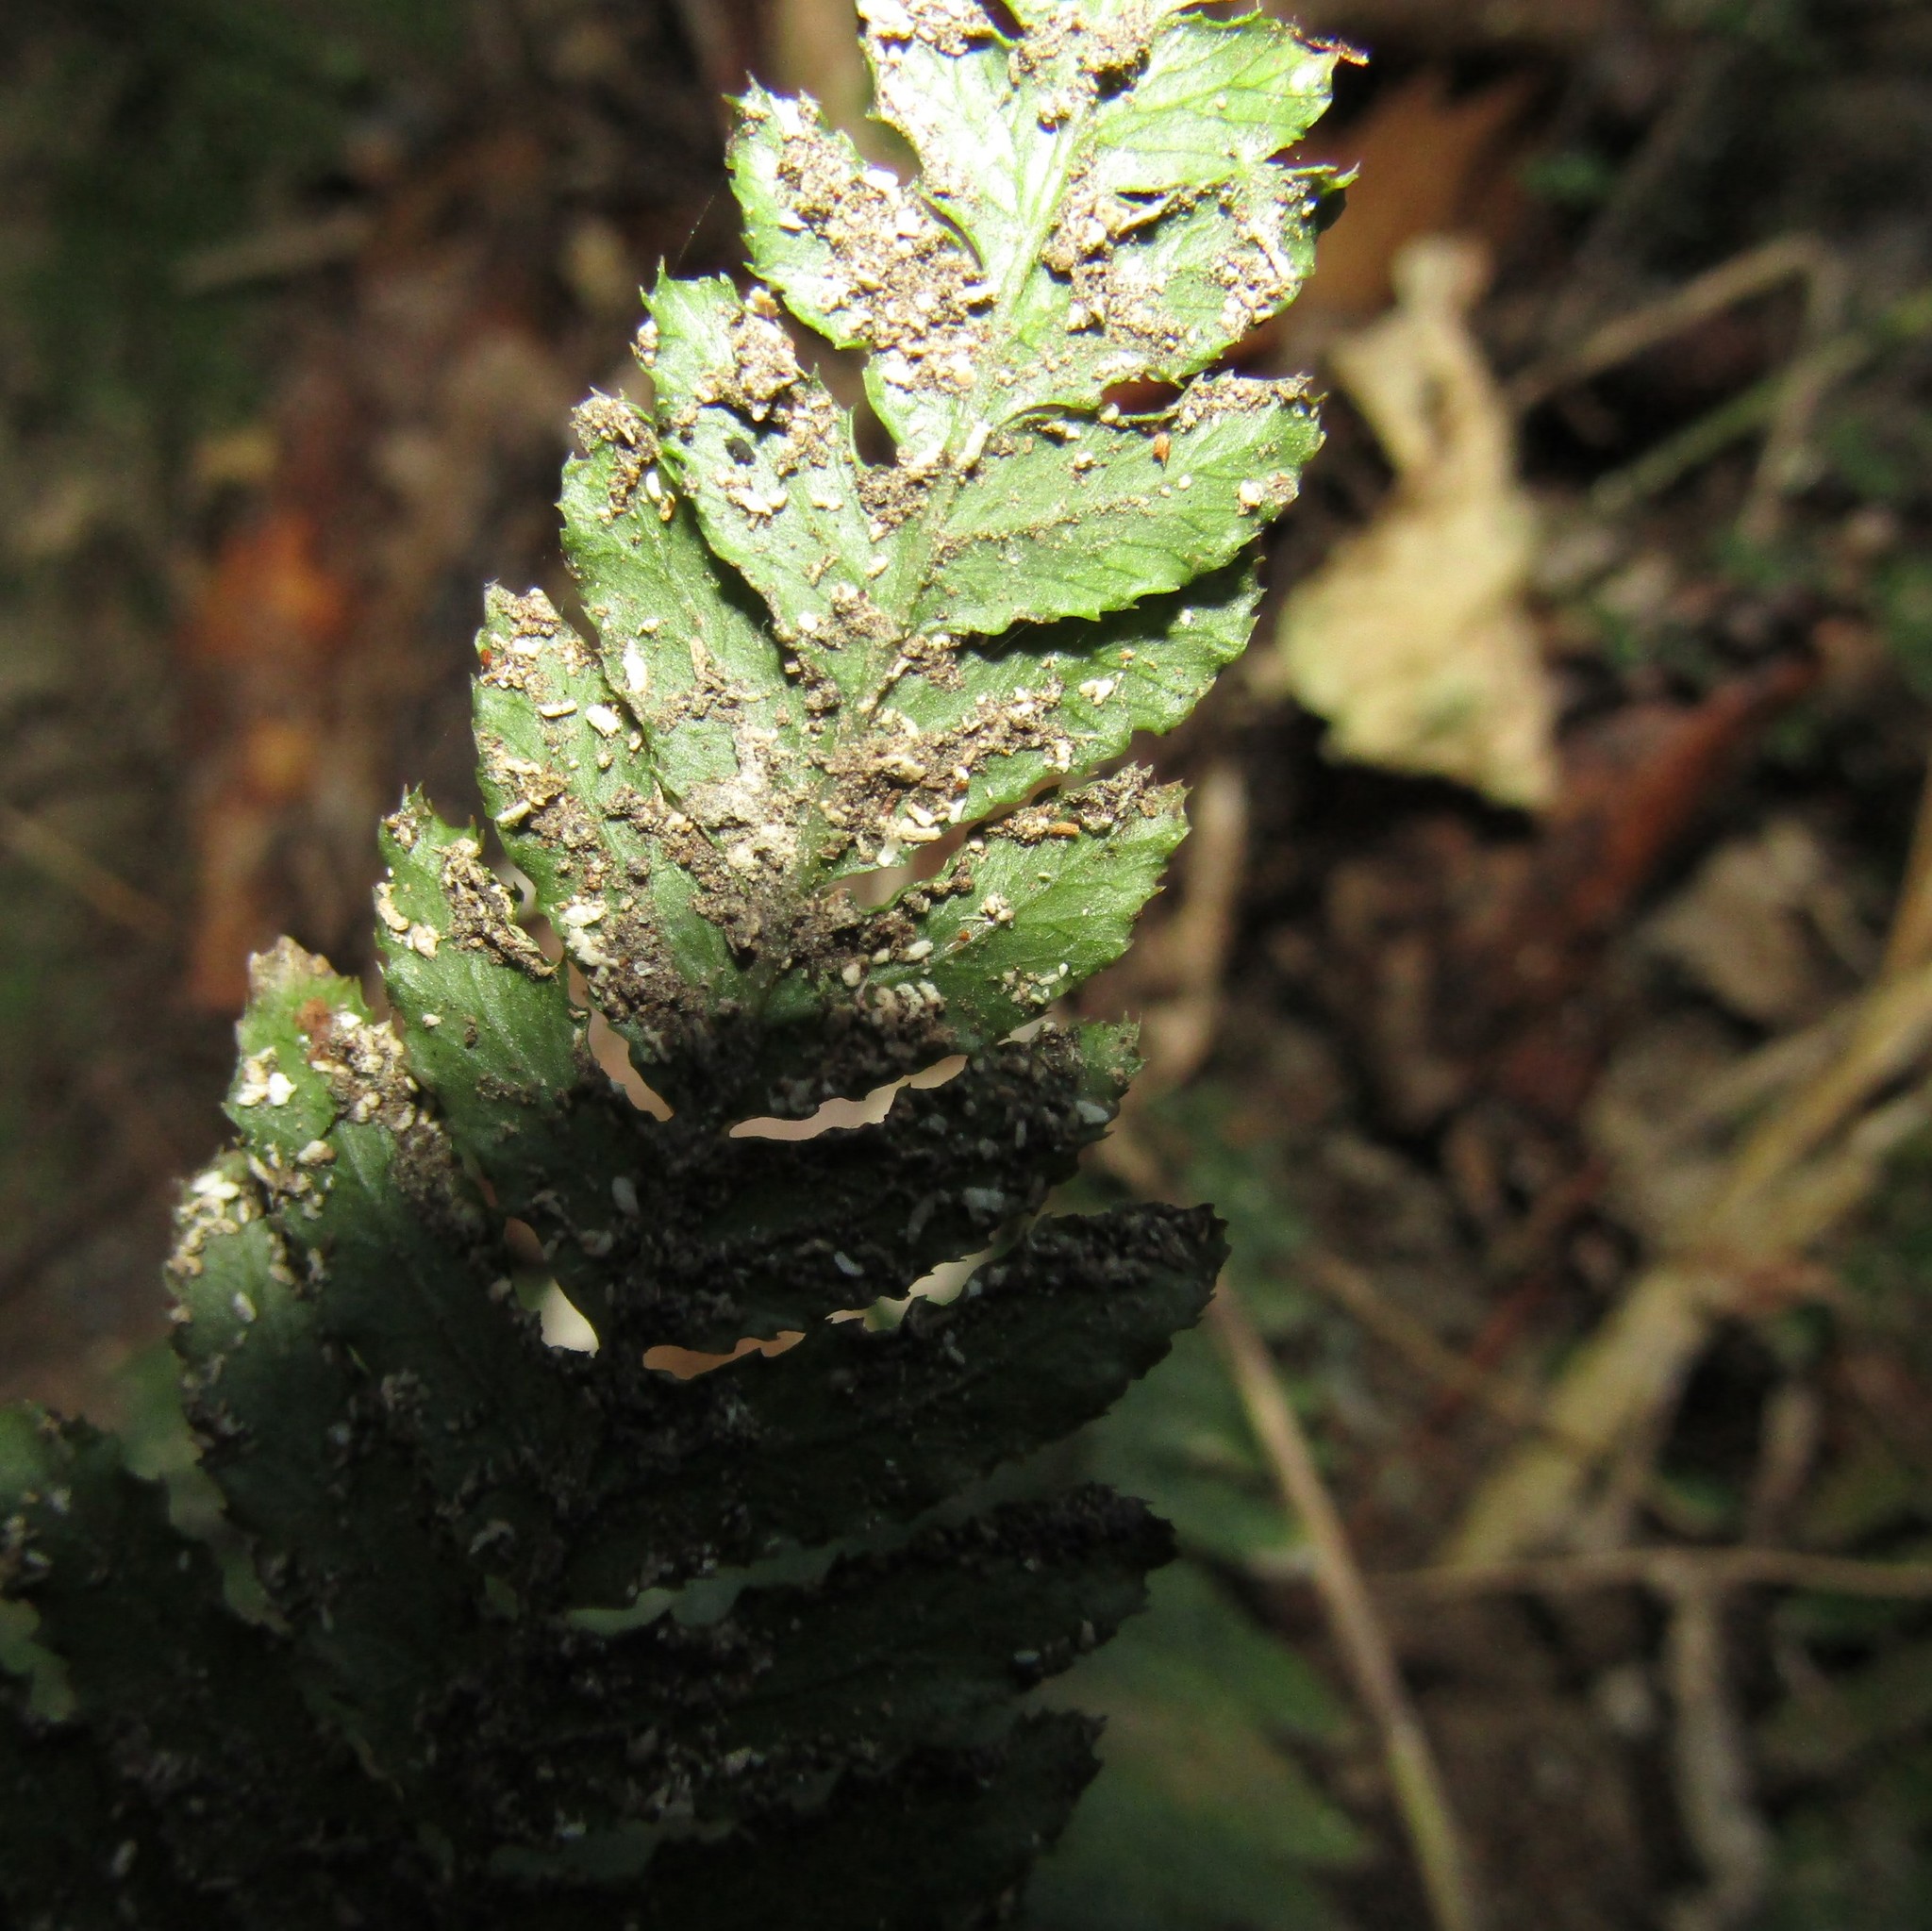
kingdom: Plantae
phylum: Tracheophyta
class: Polypodiopsida
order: Polypodiales
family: Blechnaceae
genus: Doodia
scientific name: Doodia australis
